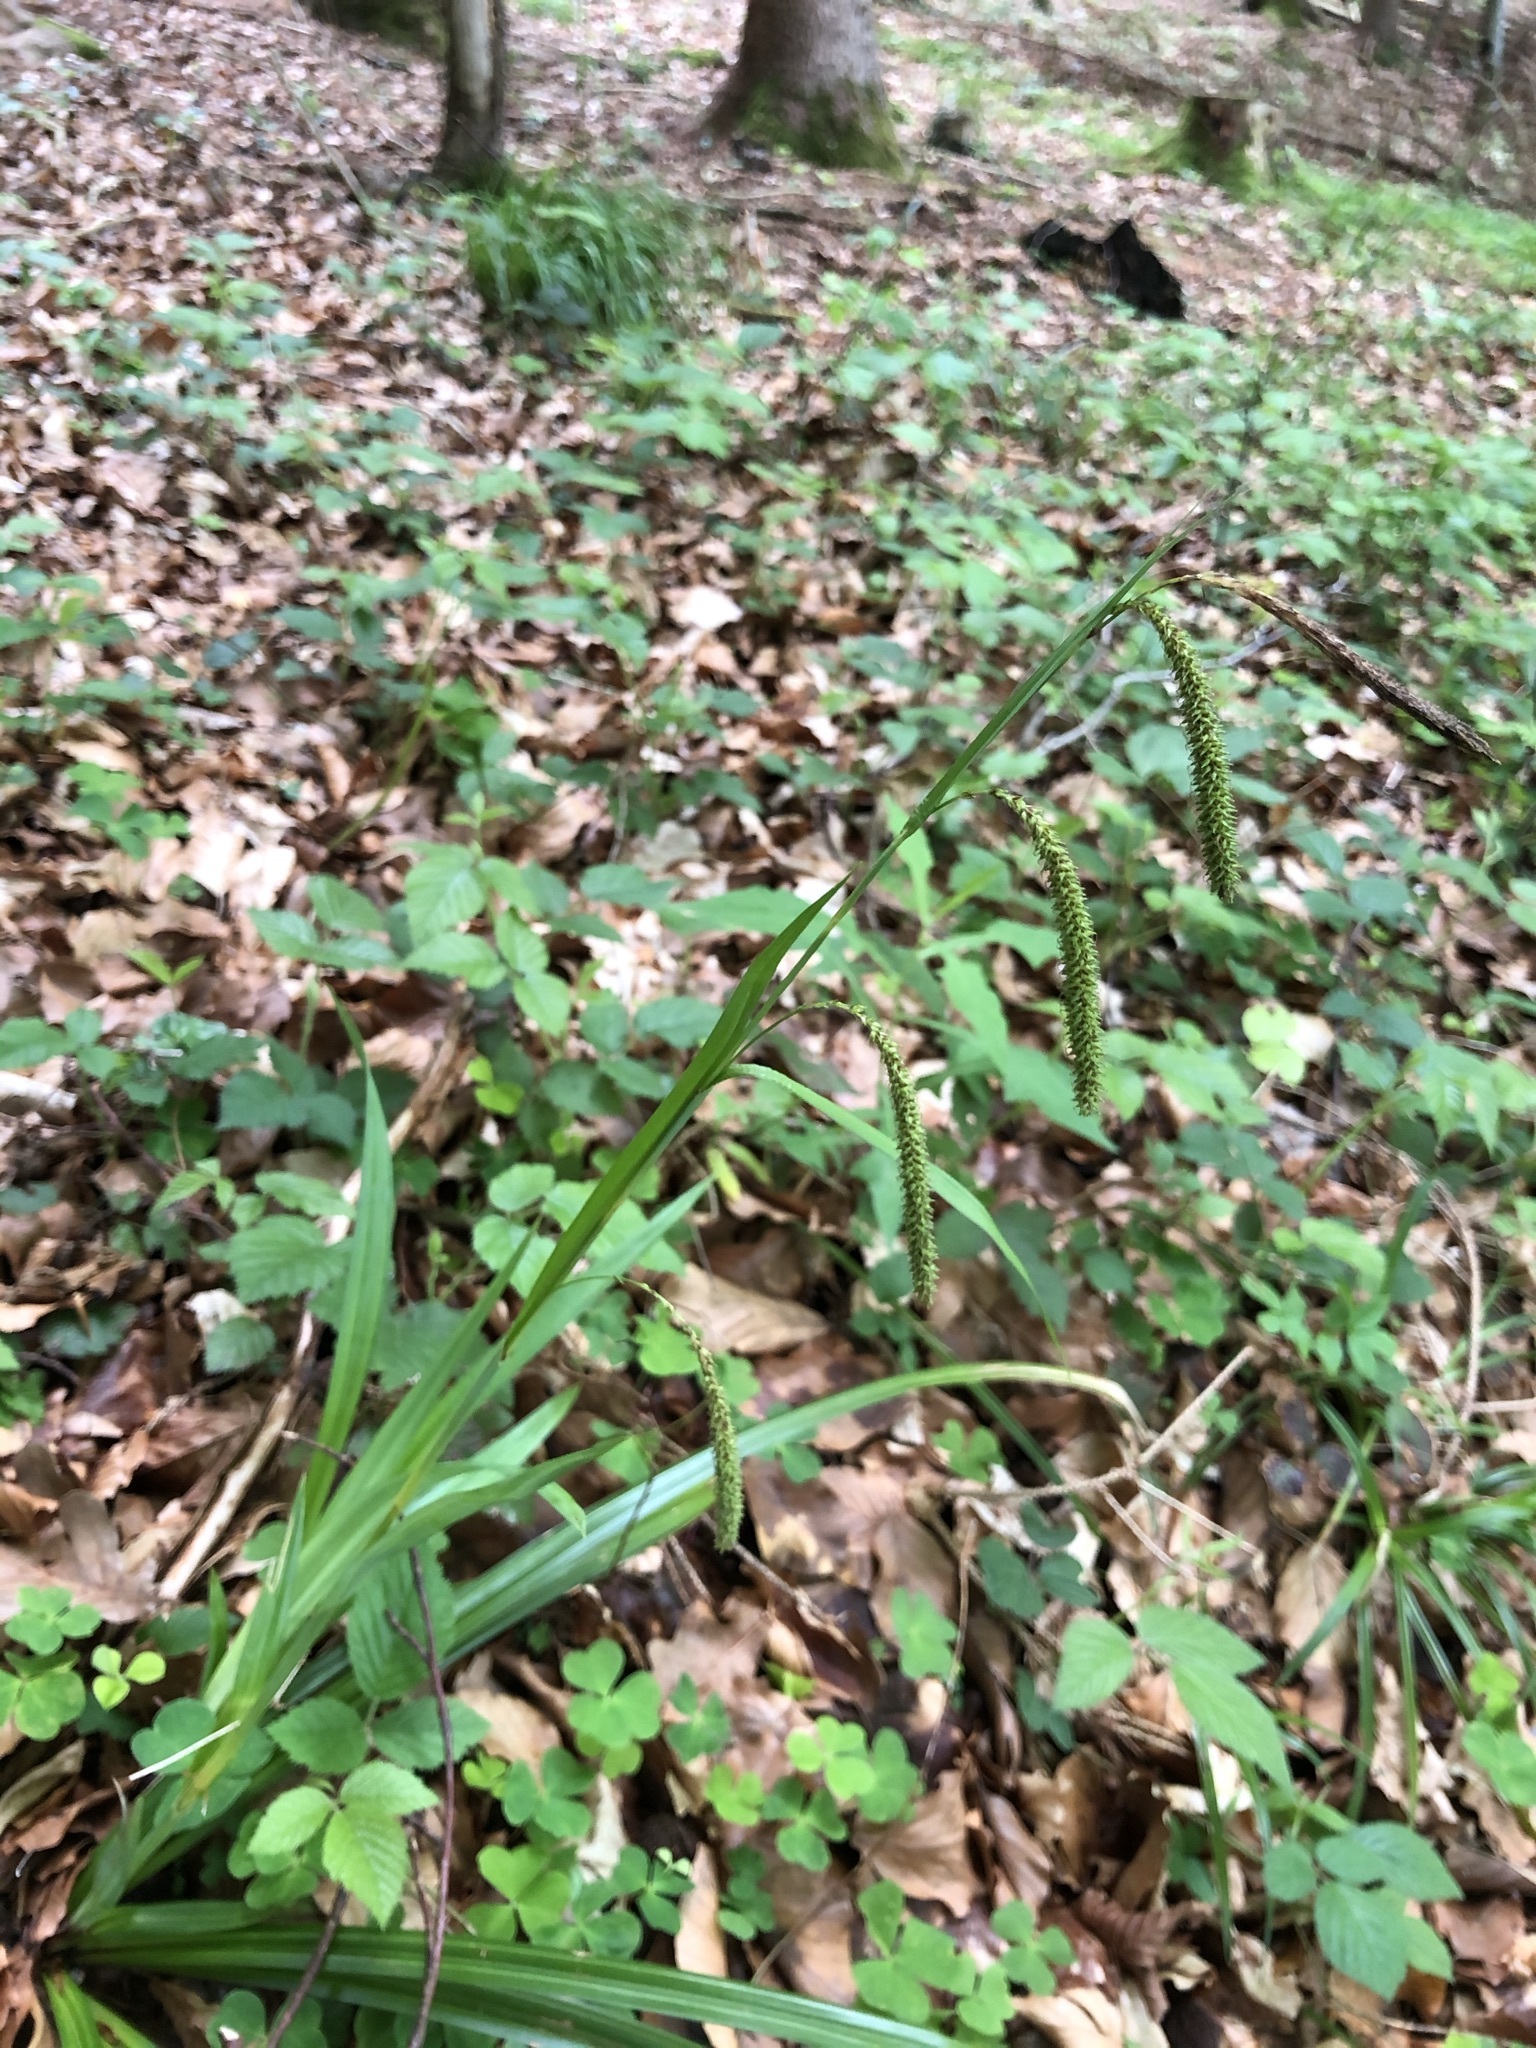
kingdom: Plantae
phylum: Tracheophyta
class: Liliopsida
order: Poales
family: Cyperaceae
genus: Carex
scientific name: Carex agastachys
